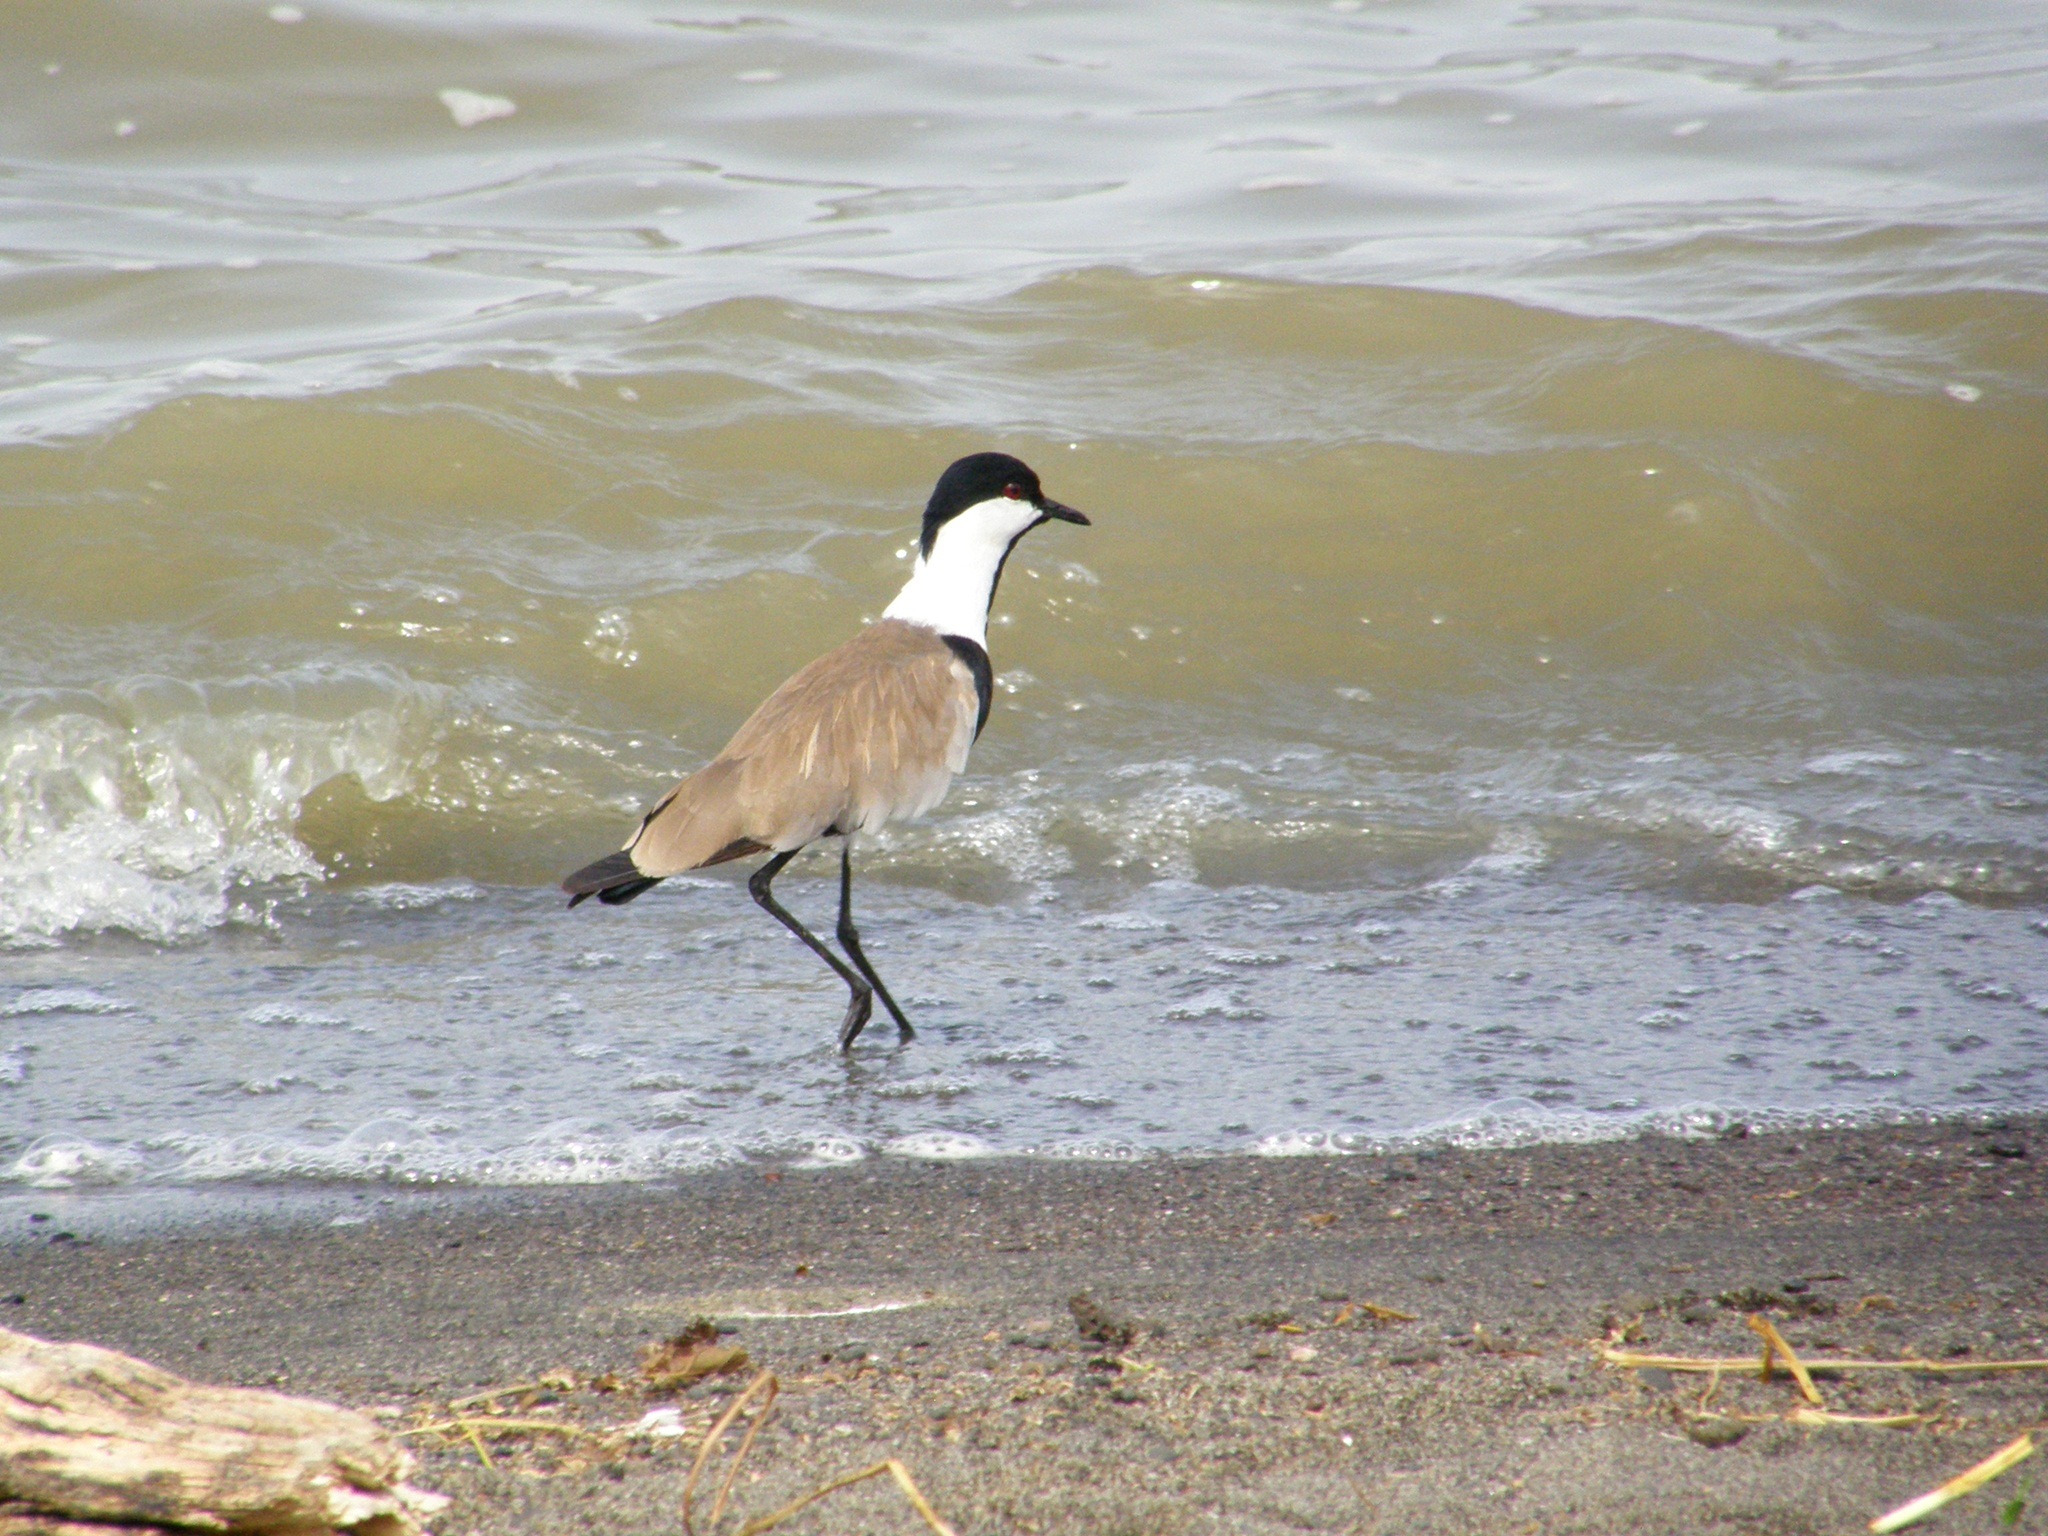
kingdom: Animalia
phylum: Chordata
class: Aves
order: Charadriiformes
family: Charadriidae
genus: Vanellus
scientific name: Vanellus spinosus
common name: Spur-winged lapwing
